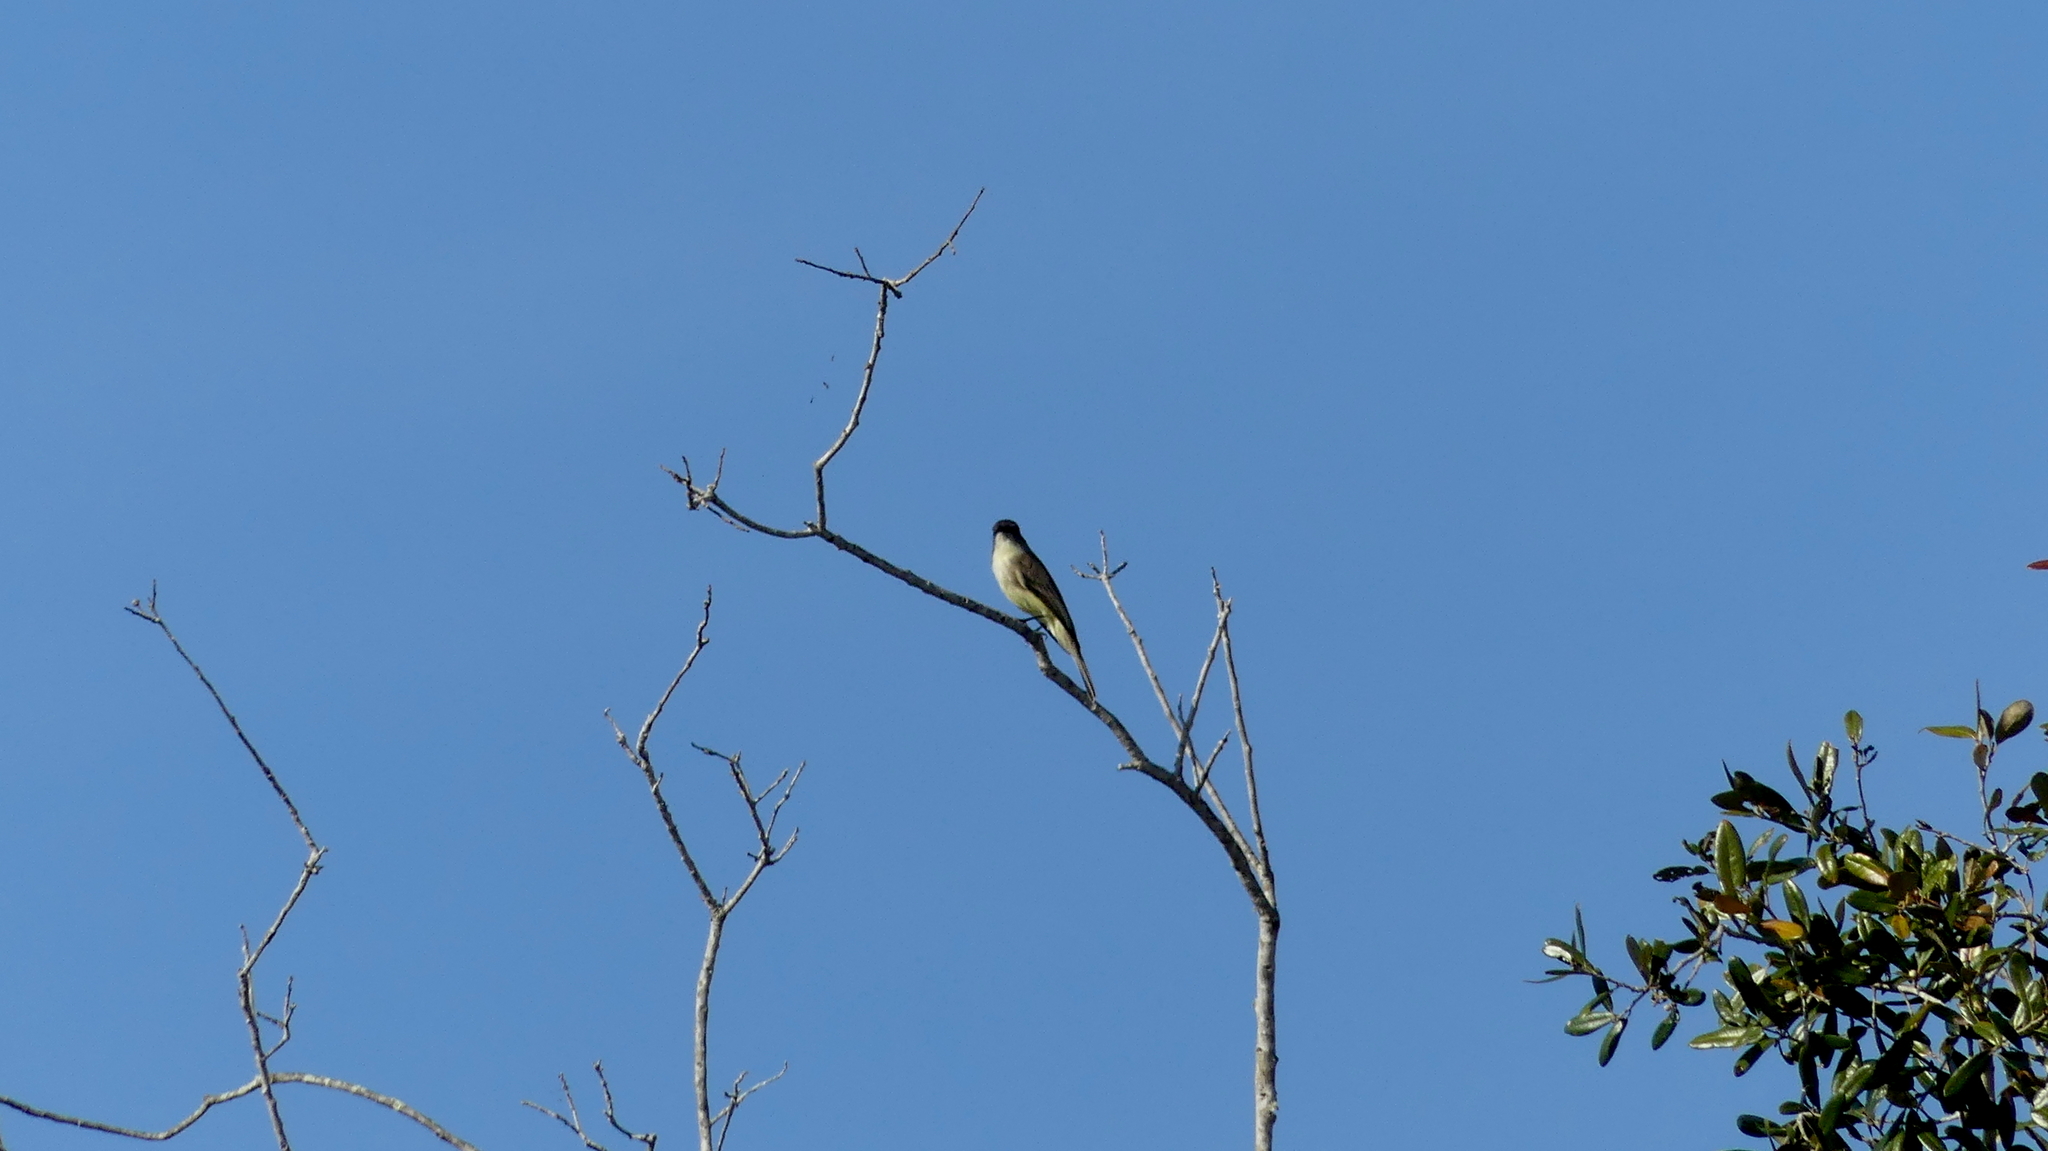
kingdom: Animalia
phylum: Chordata
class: Aves
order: Passeriformes
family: Tyrannidae
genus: Sayornis
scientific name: Sayornis phoebe
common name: Eastern phoebe
